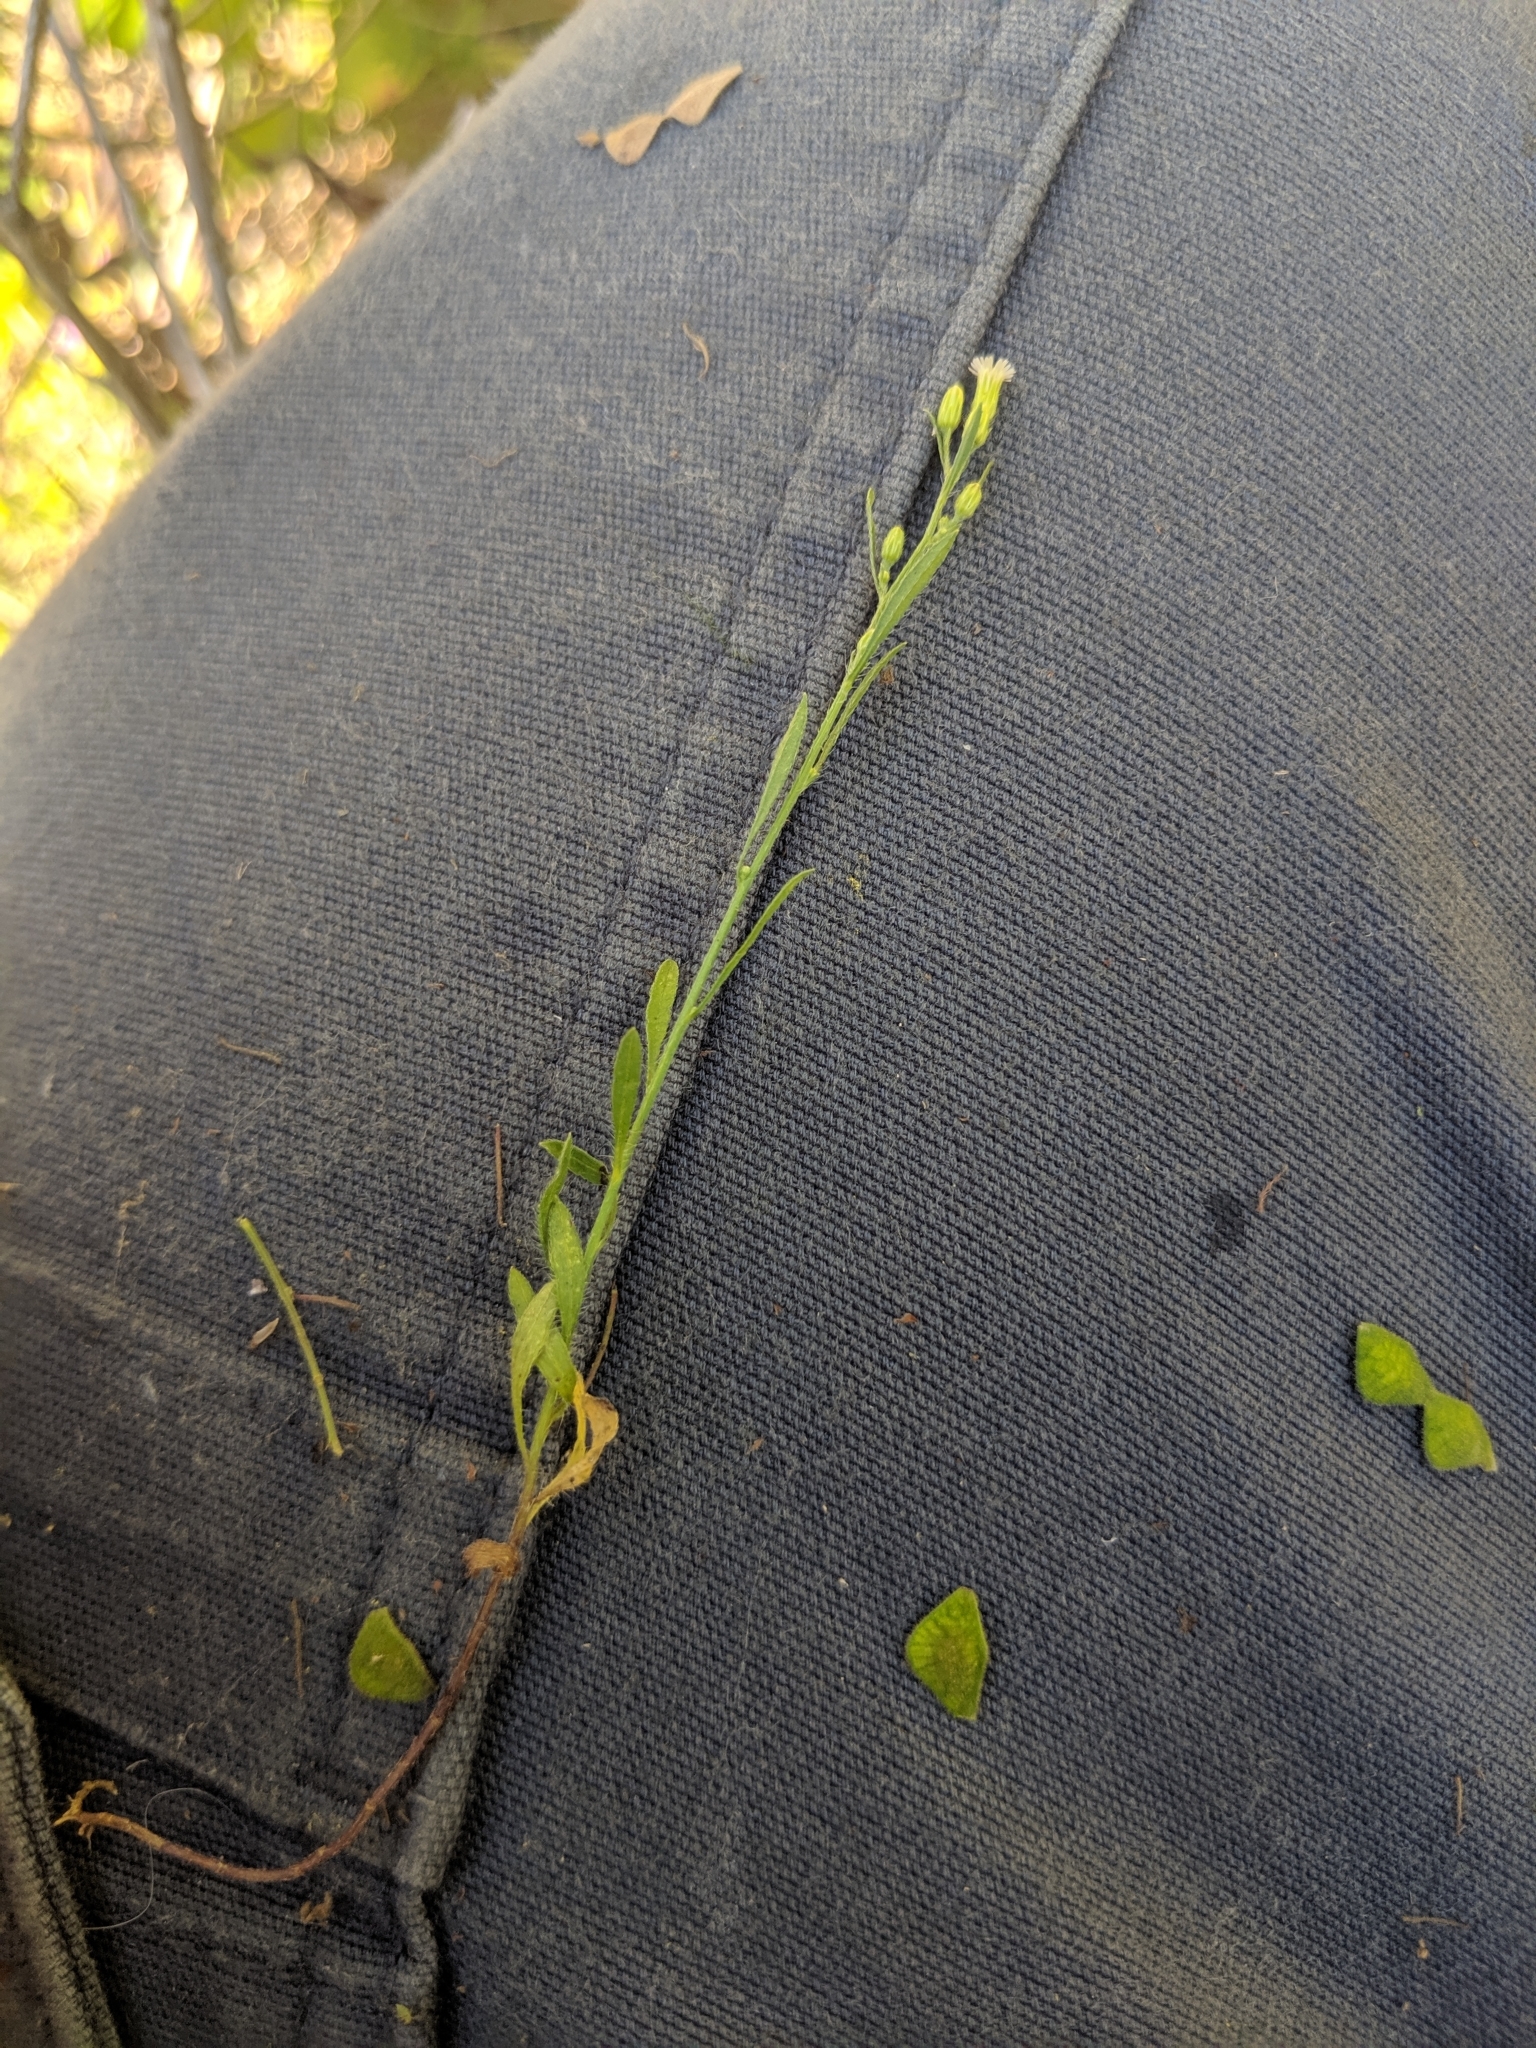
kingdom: Plantae
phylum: Tracheophyta
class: Magnoliopsida
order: Asterales
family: Asteraceae
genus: Erigeron
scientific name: Erigeron canadensis
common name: Canadian fleabane
